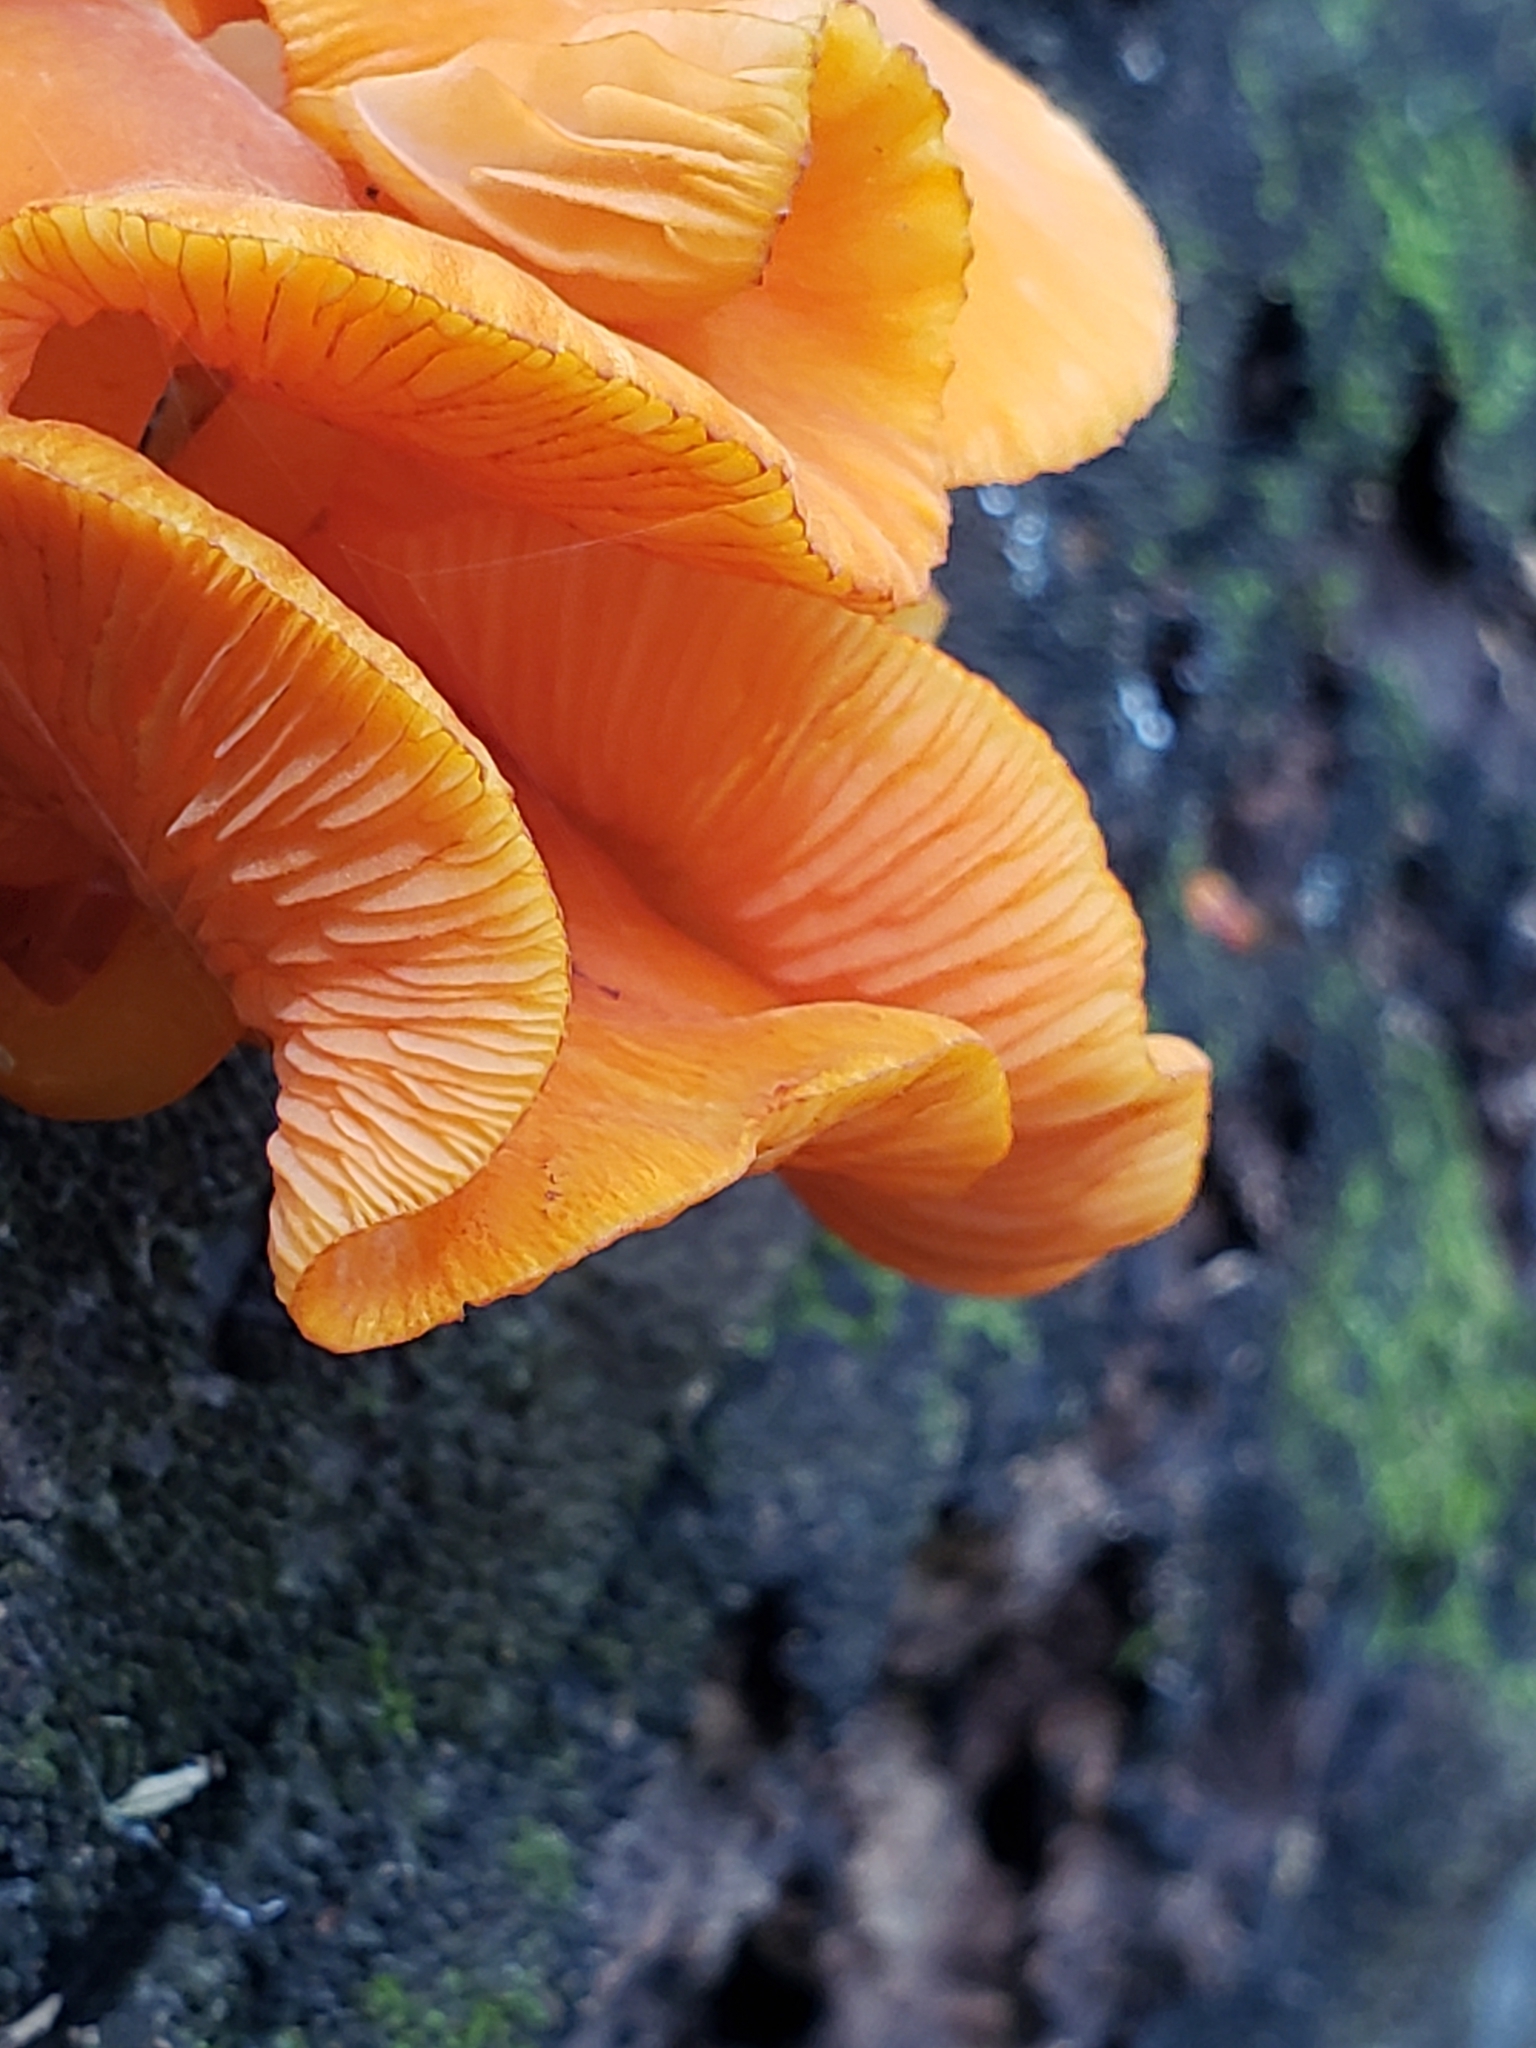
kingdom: Fungi
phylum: Basidiomycota
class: Agaricomycetes
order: Agaricales
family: Mycenaceae
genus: Mycena
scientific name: Mycena leaiana
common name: Orange mycena
